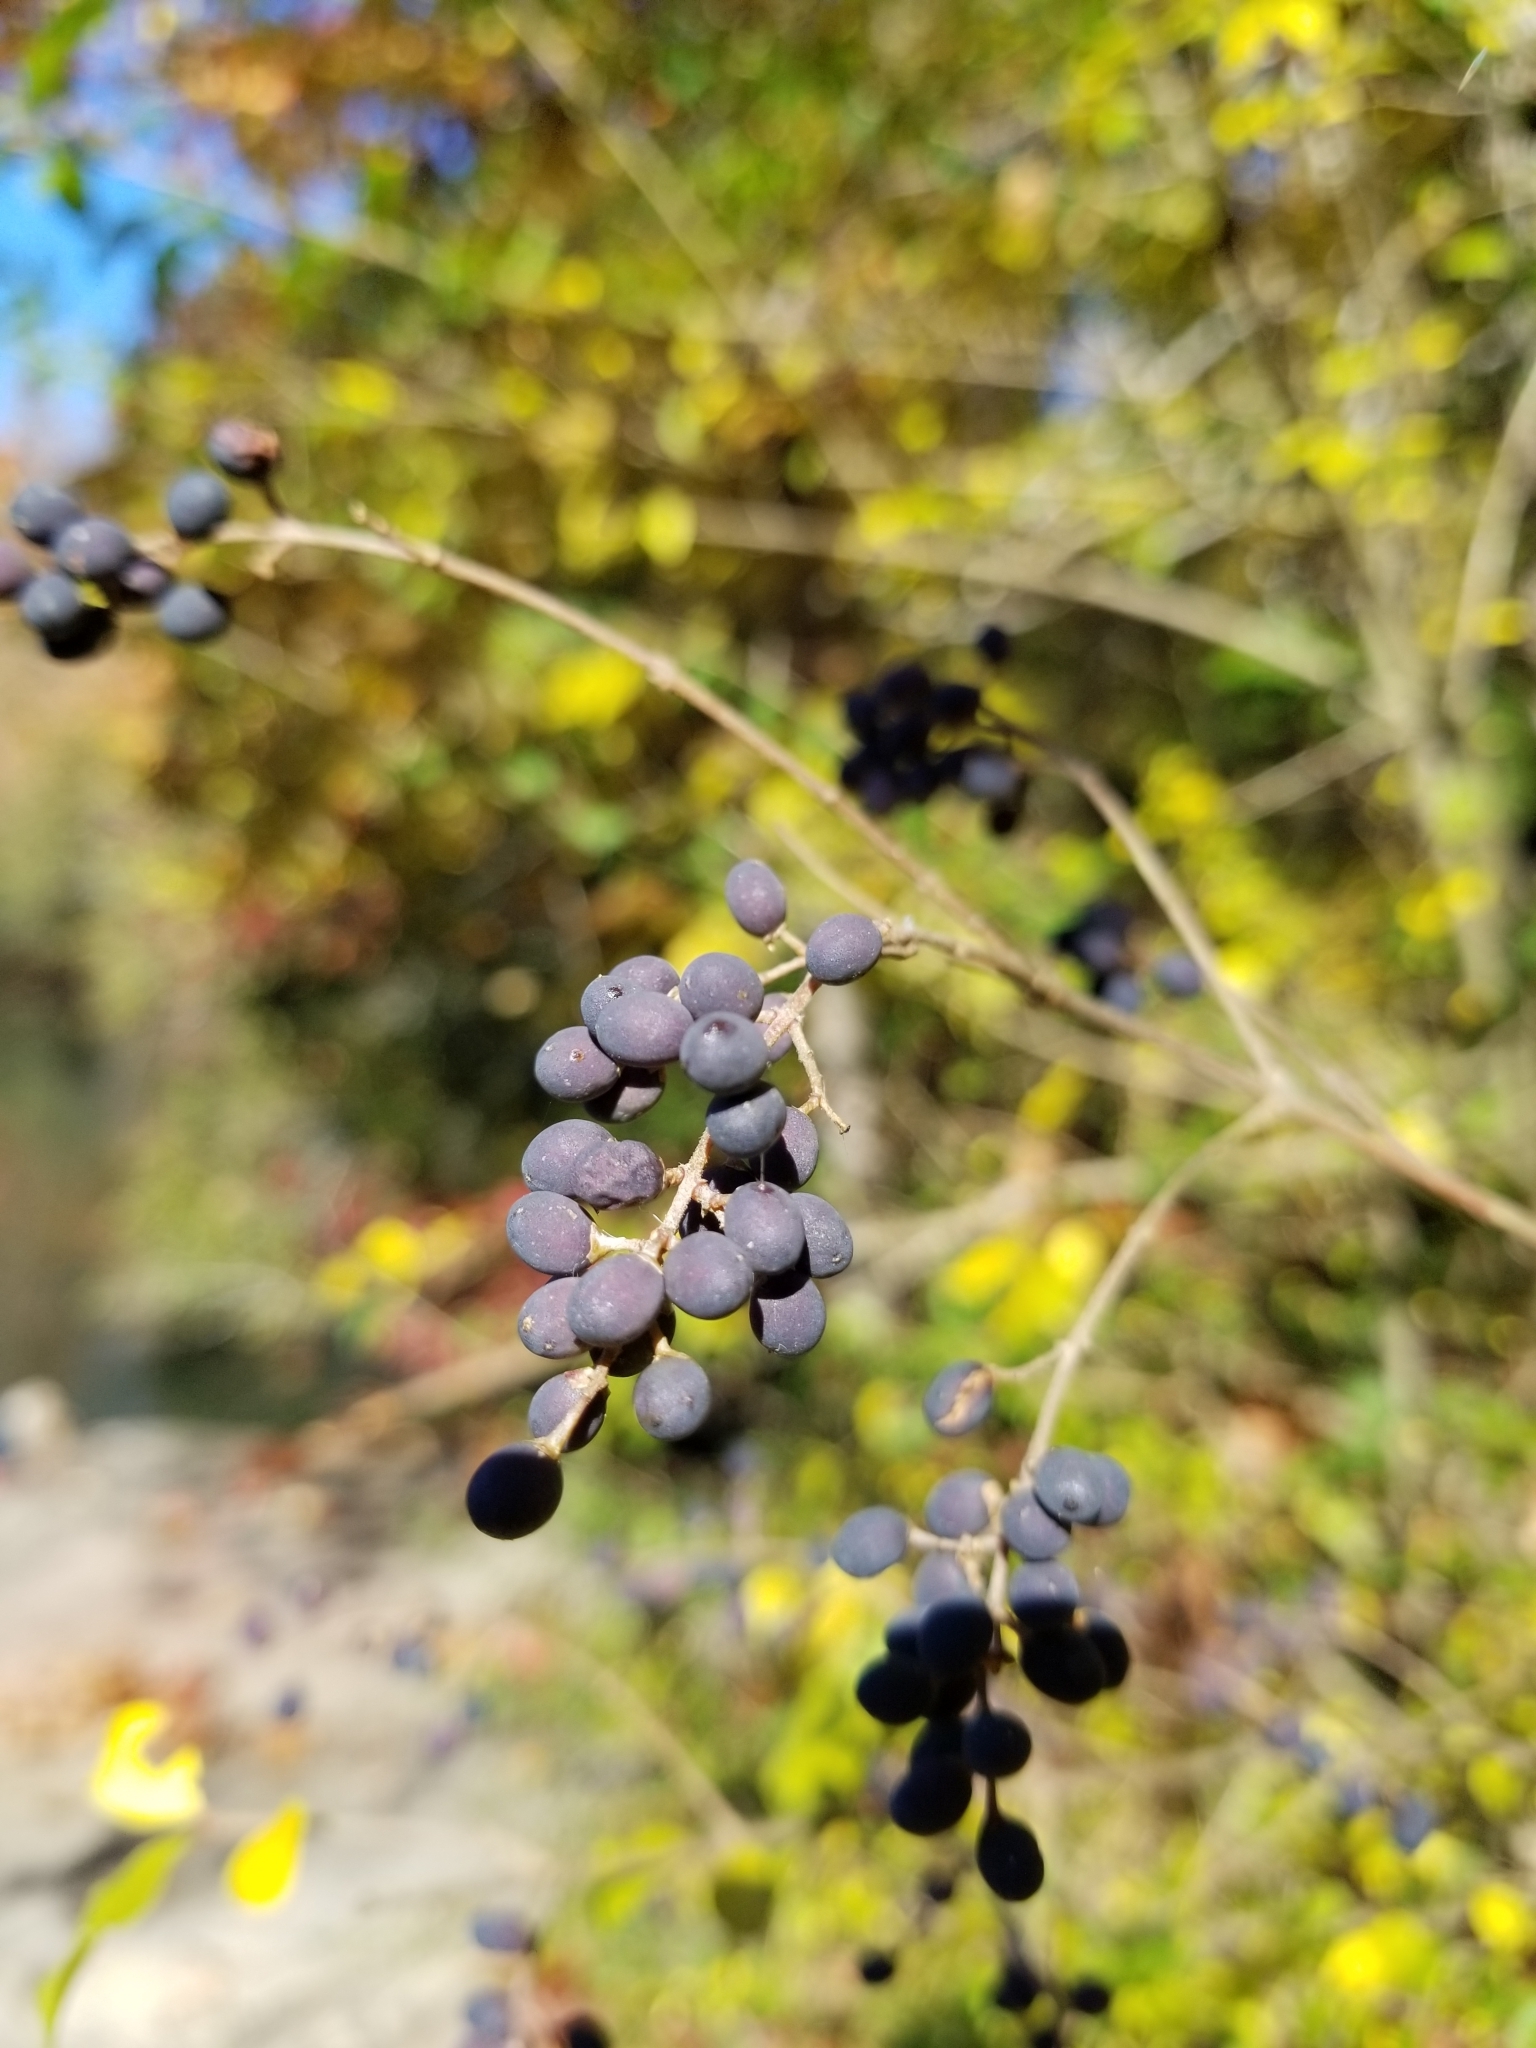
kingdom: Plantae
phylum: Tracheophyta
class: Magnoliopsida
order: Lamiales
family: Oleaceae
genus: Ligustrum
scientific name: Ligustrum sinense
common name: Chinese privet
